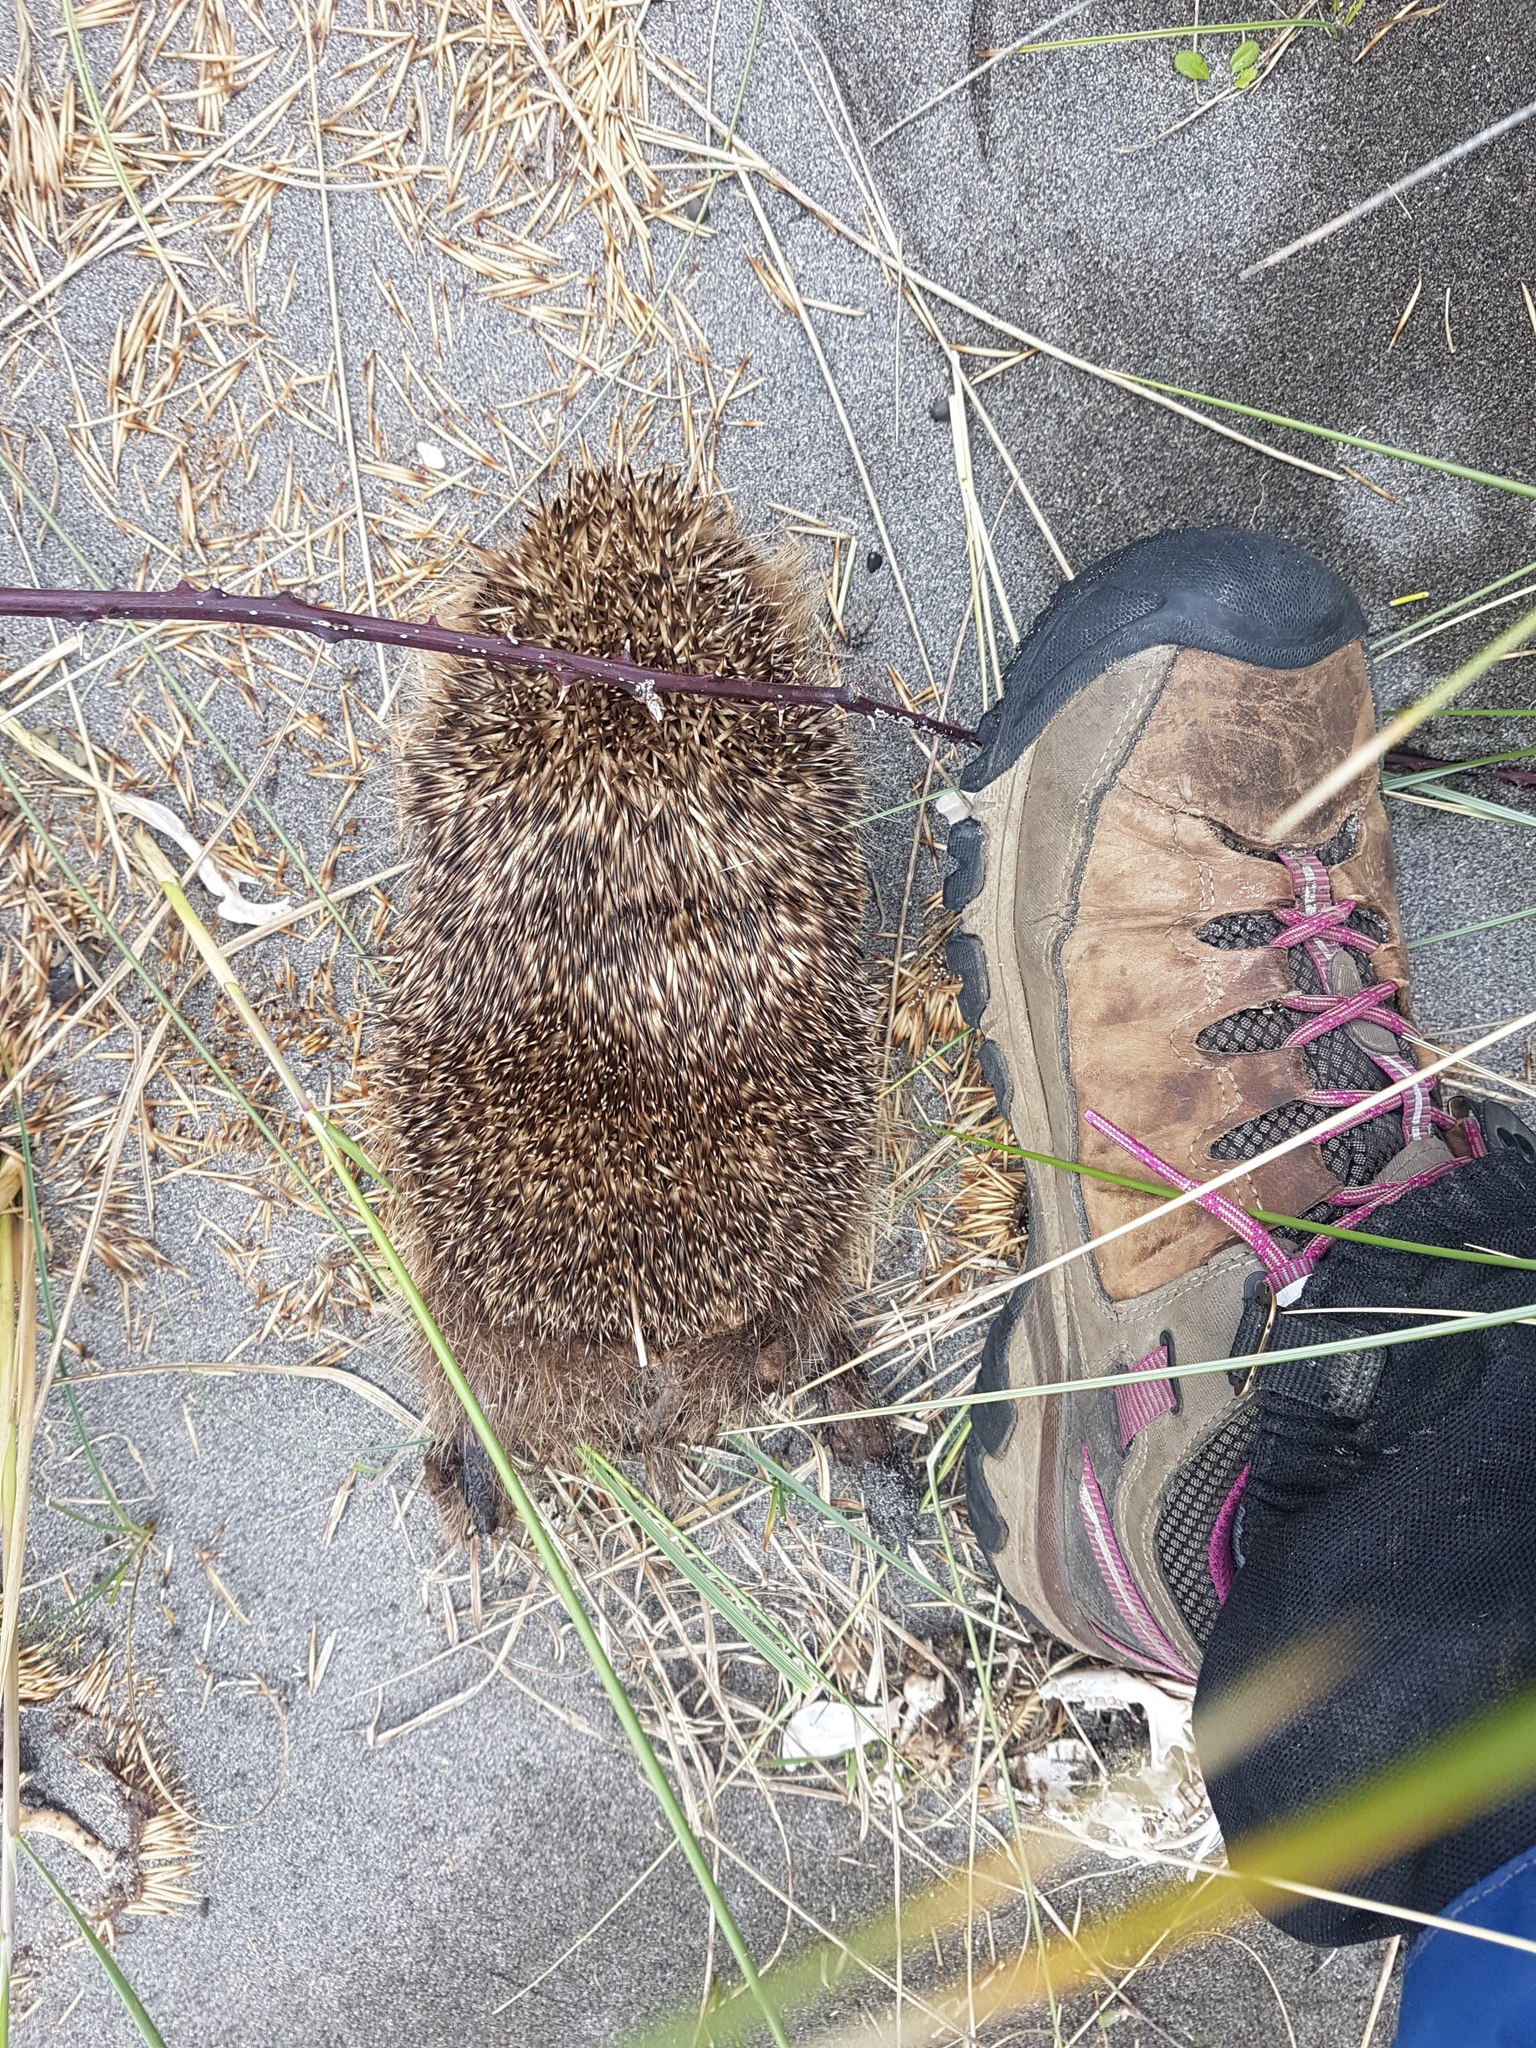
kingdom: Animalia
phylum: Chordata
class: Mammalia
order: Erinaceomorpha
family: Erinaceidae
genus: Erinaceus
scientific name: Erinaceus europaeus
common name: West european hedgehog
